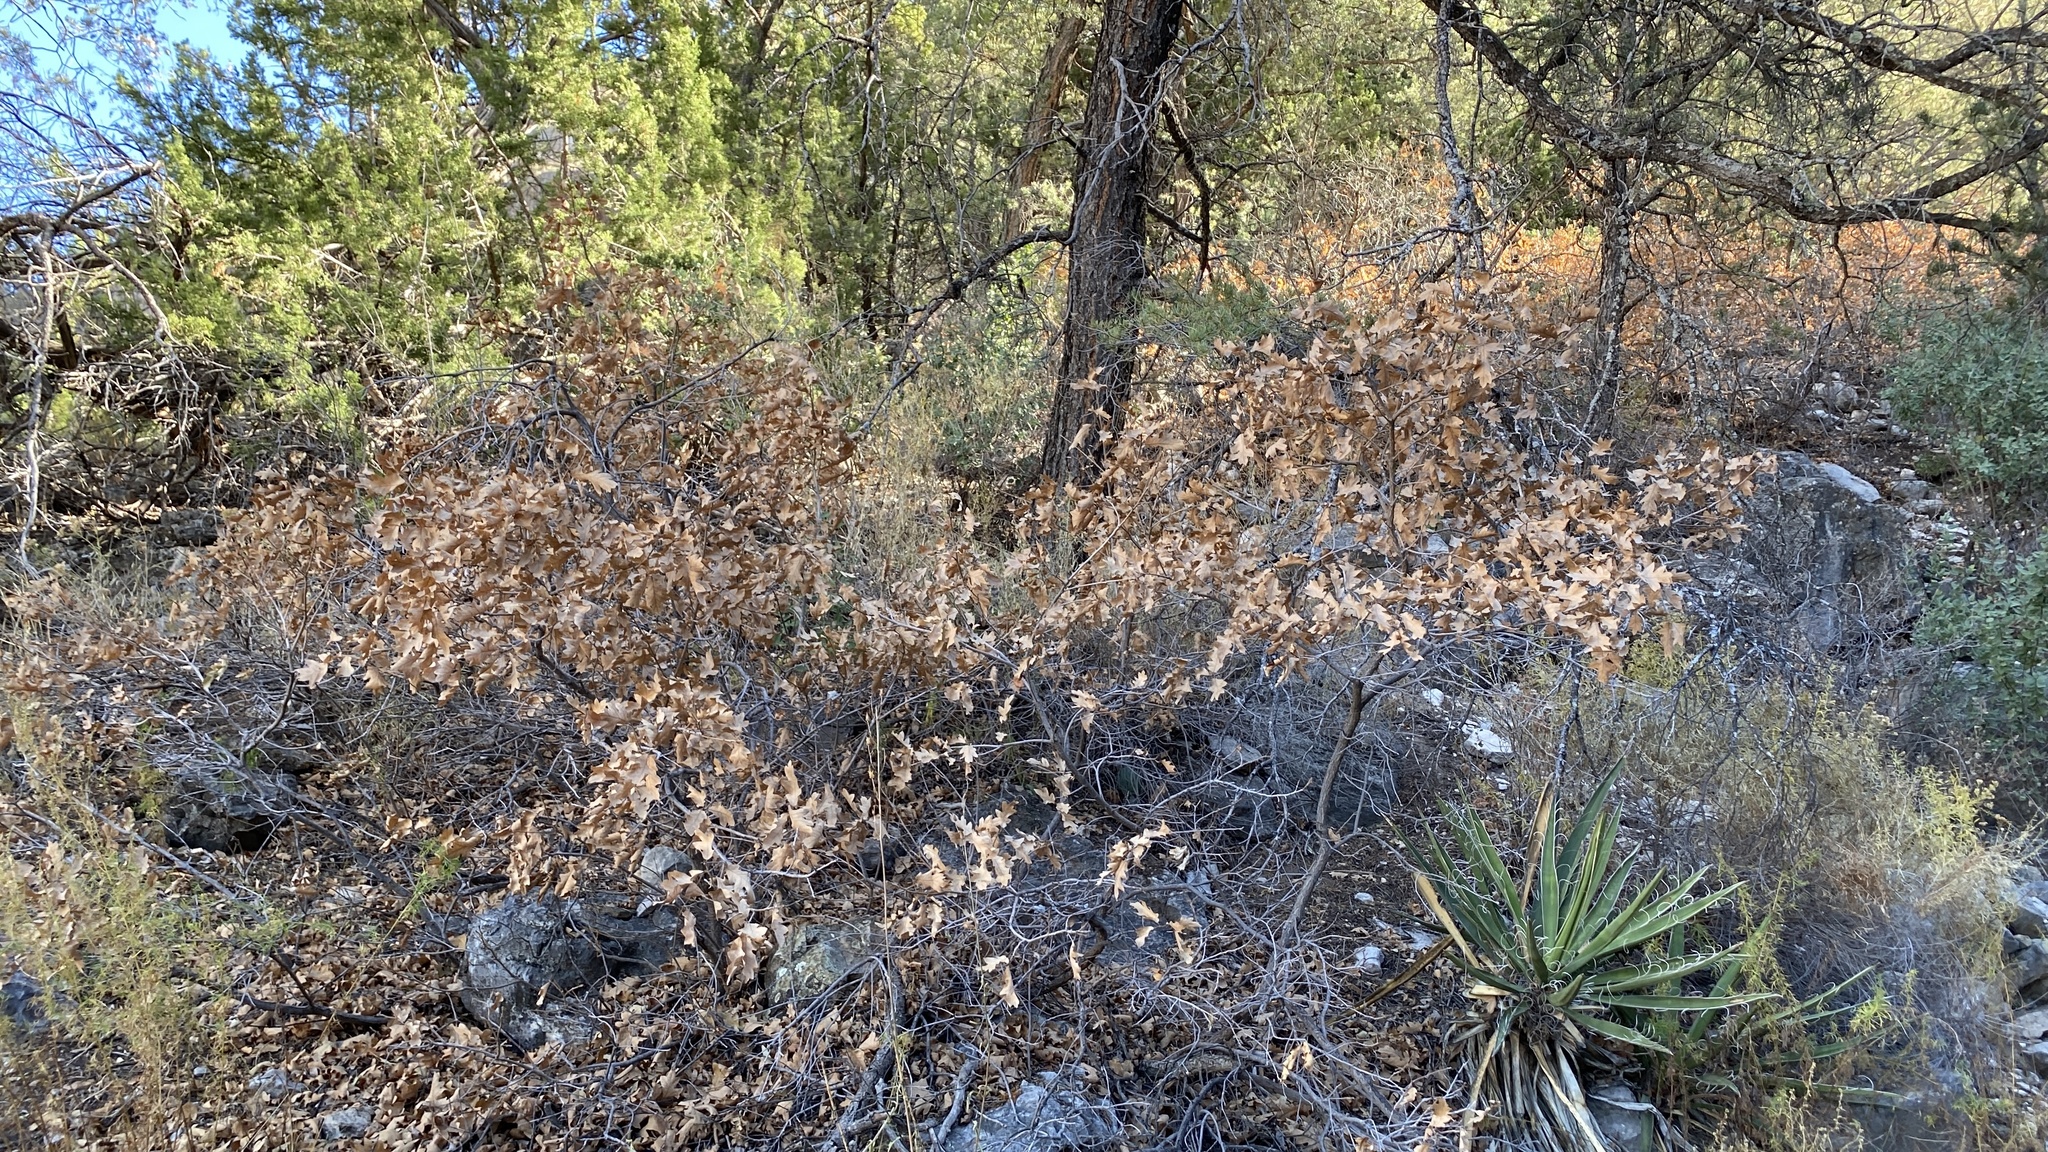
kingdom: Plantae
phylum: Tracheophyta
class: Magnoliopsida
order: Fagales
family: Fagaceae
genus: Quercus
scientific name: Quercus undulata
